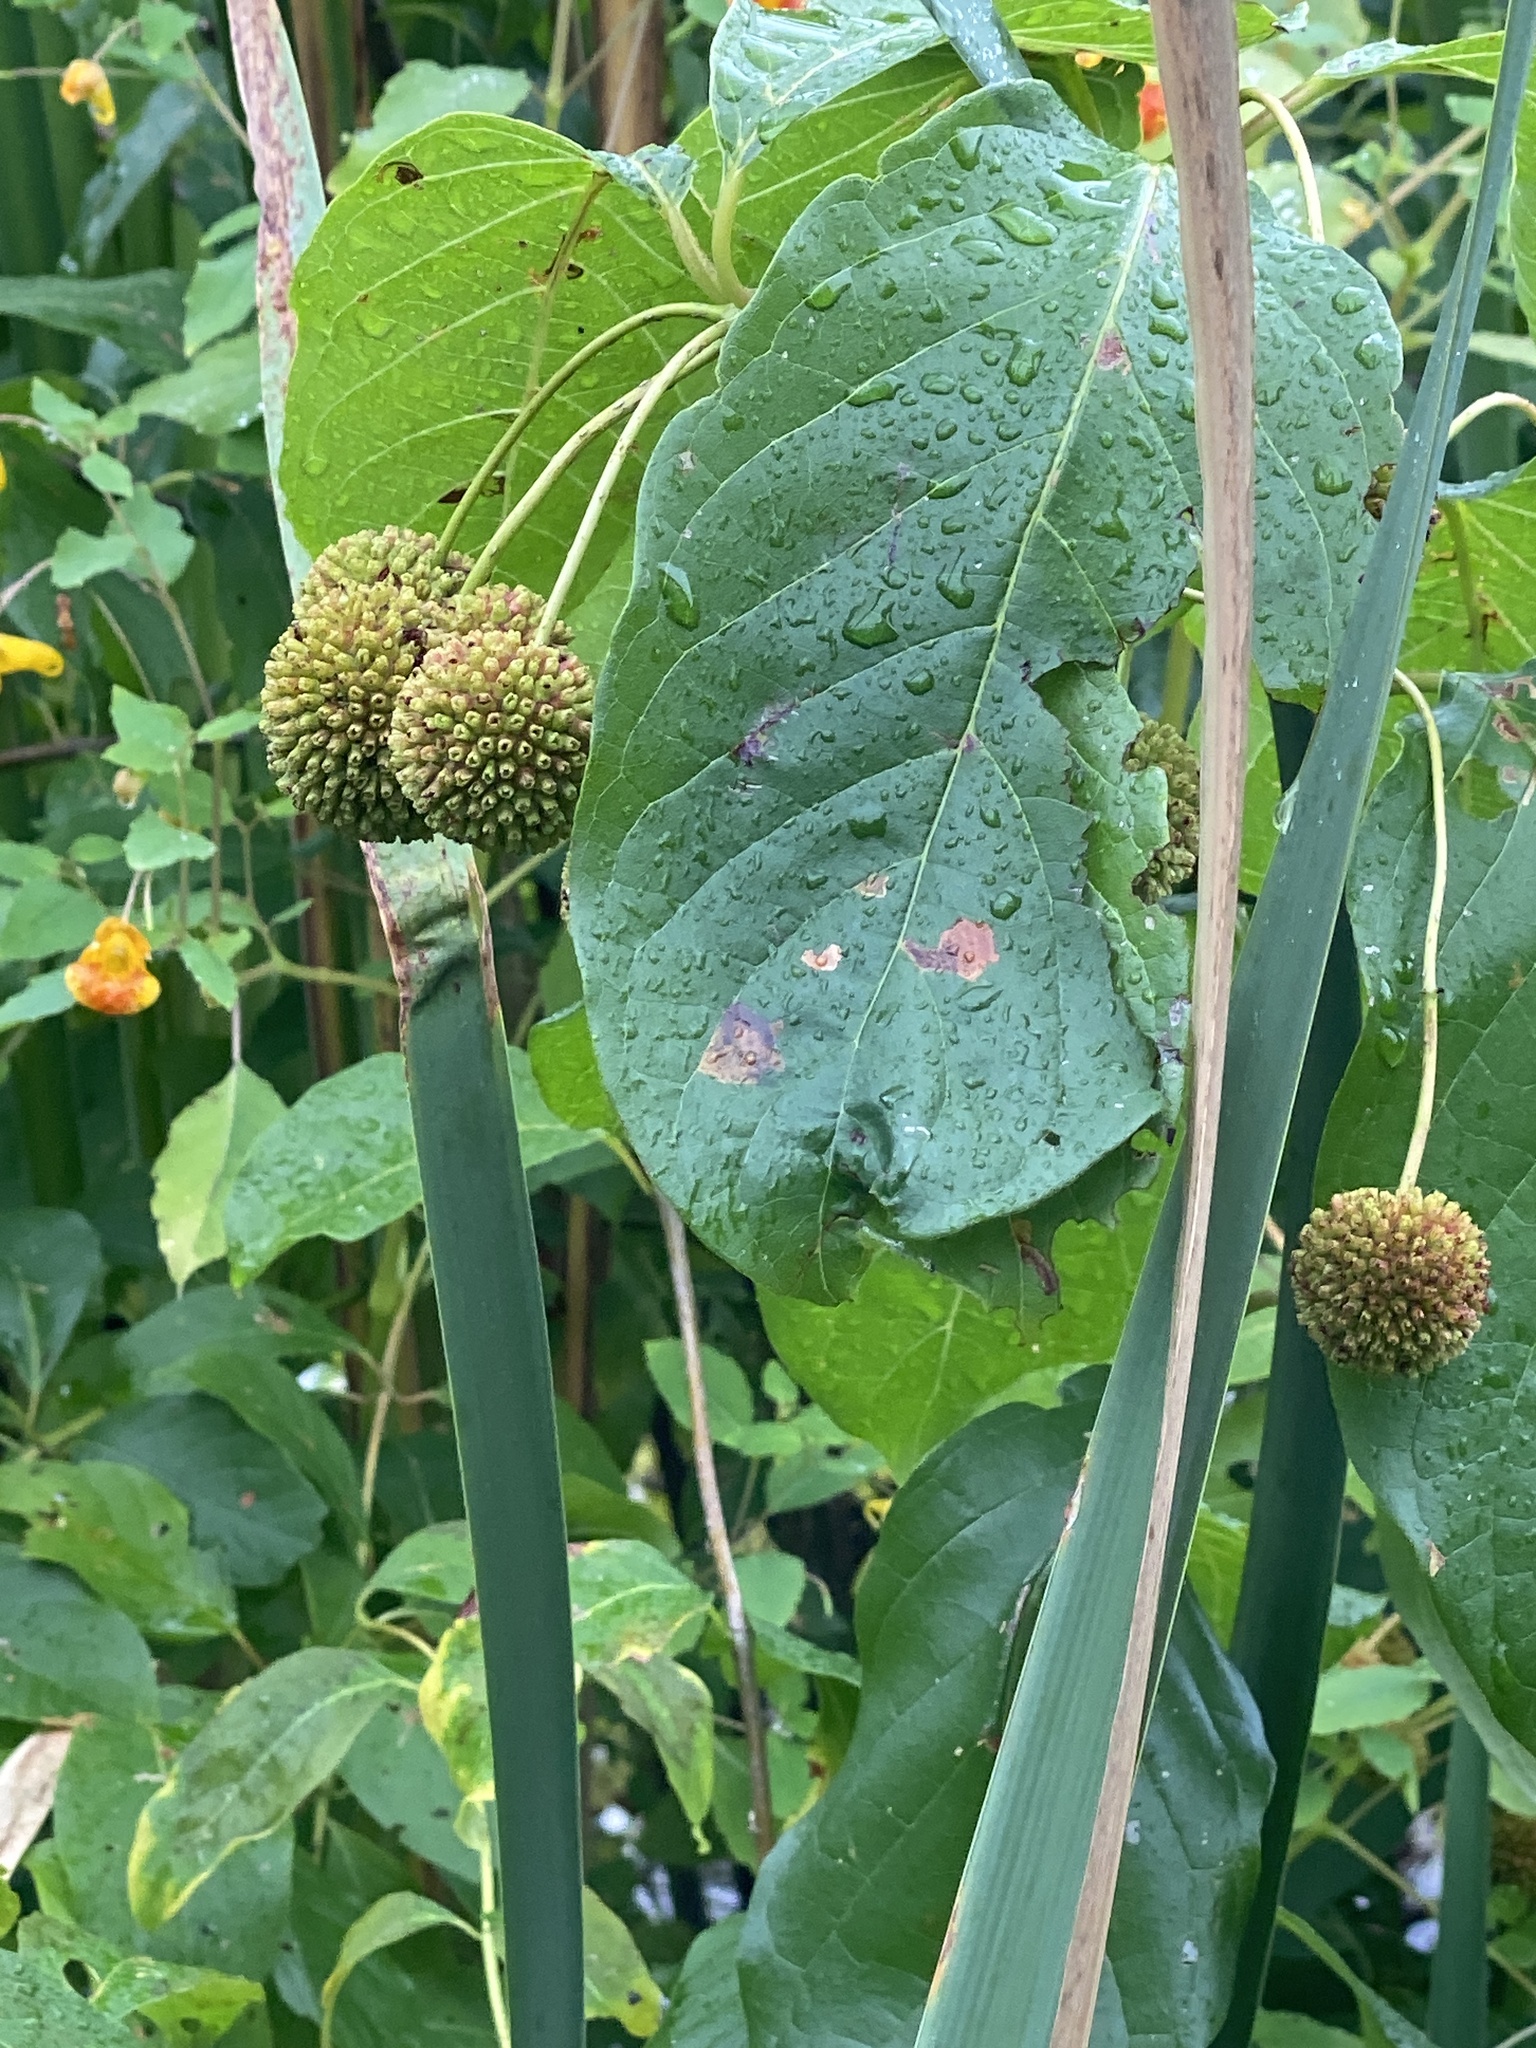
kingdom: Plantae
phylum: Tracheophyta
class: Magnoliopsida
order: Gentianales
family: Rubiaceae
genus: Cephalanthus
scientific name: Cephalanthus occidentalis
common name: Button-willow
